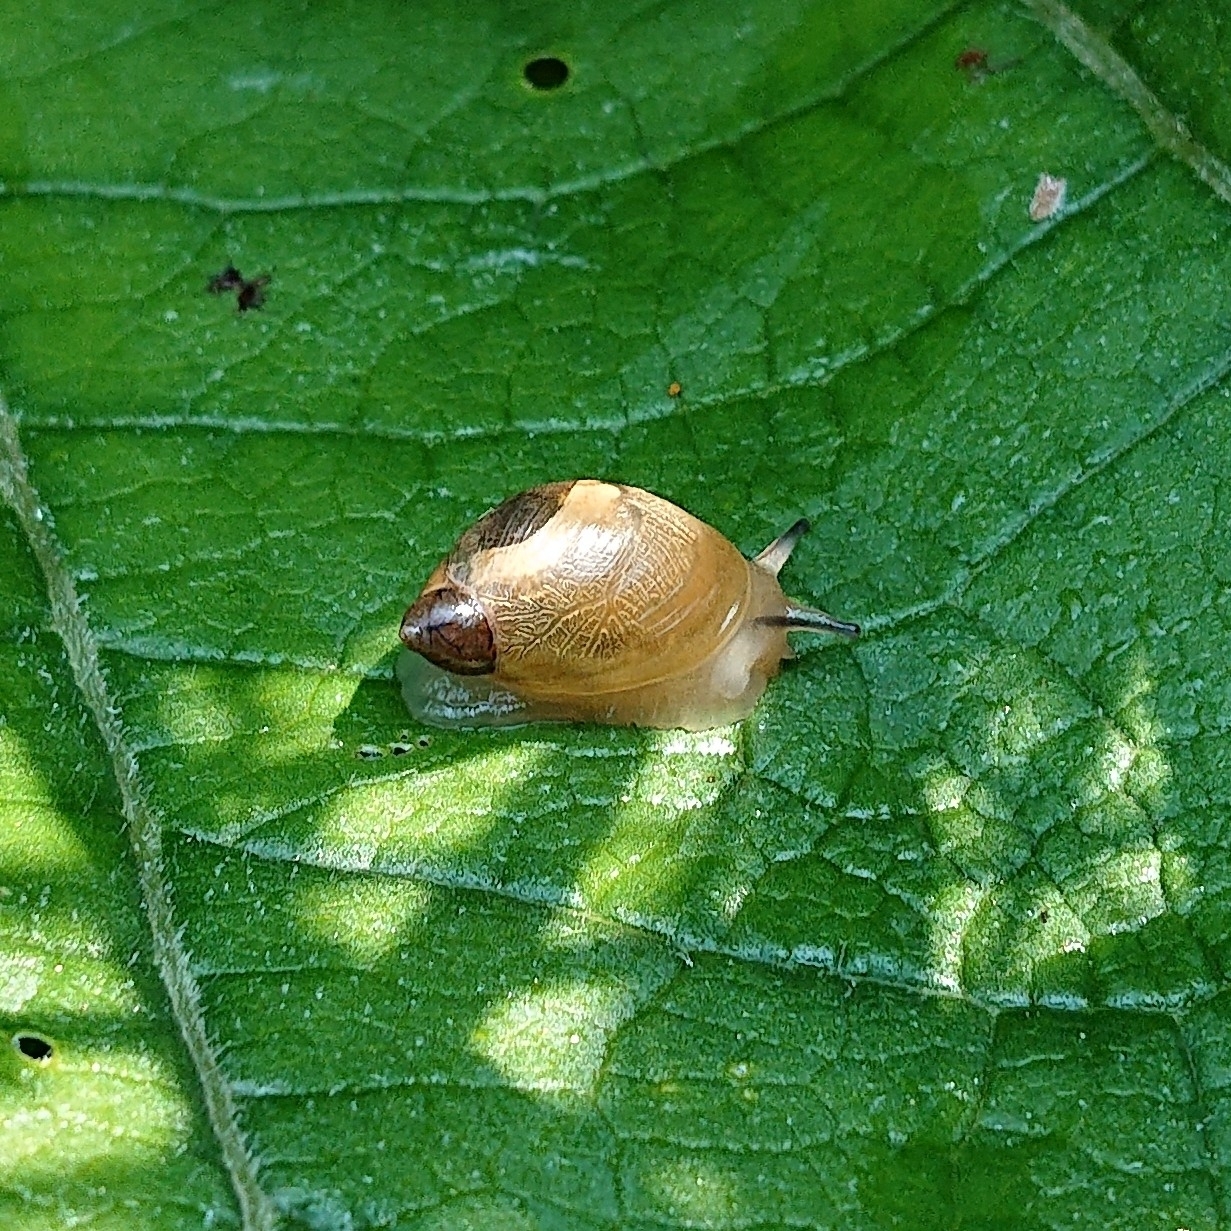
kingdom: Animalia
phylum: Mollusca
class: Gastropoda
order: Stylommatophora
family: Succineidae
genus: Succinea
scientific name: Succinea putris
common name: European ambersnail
